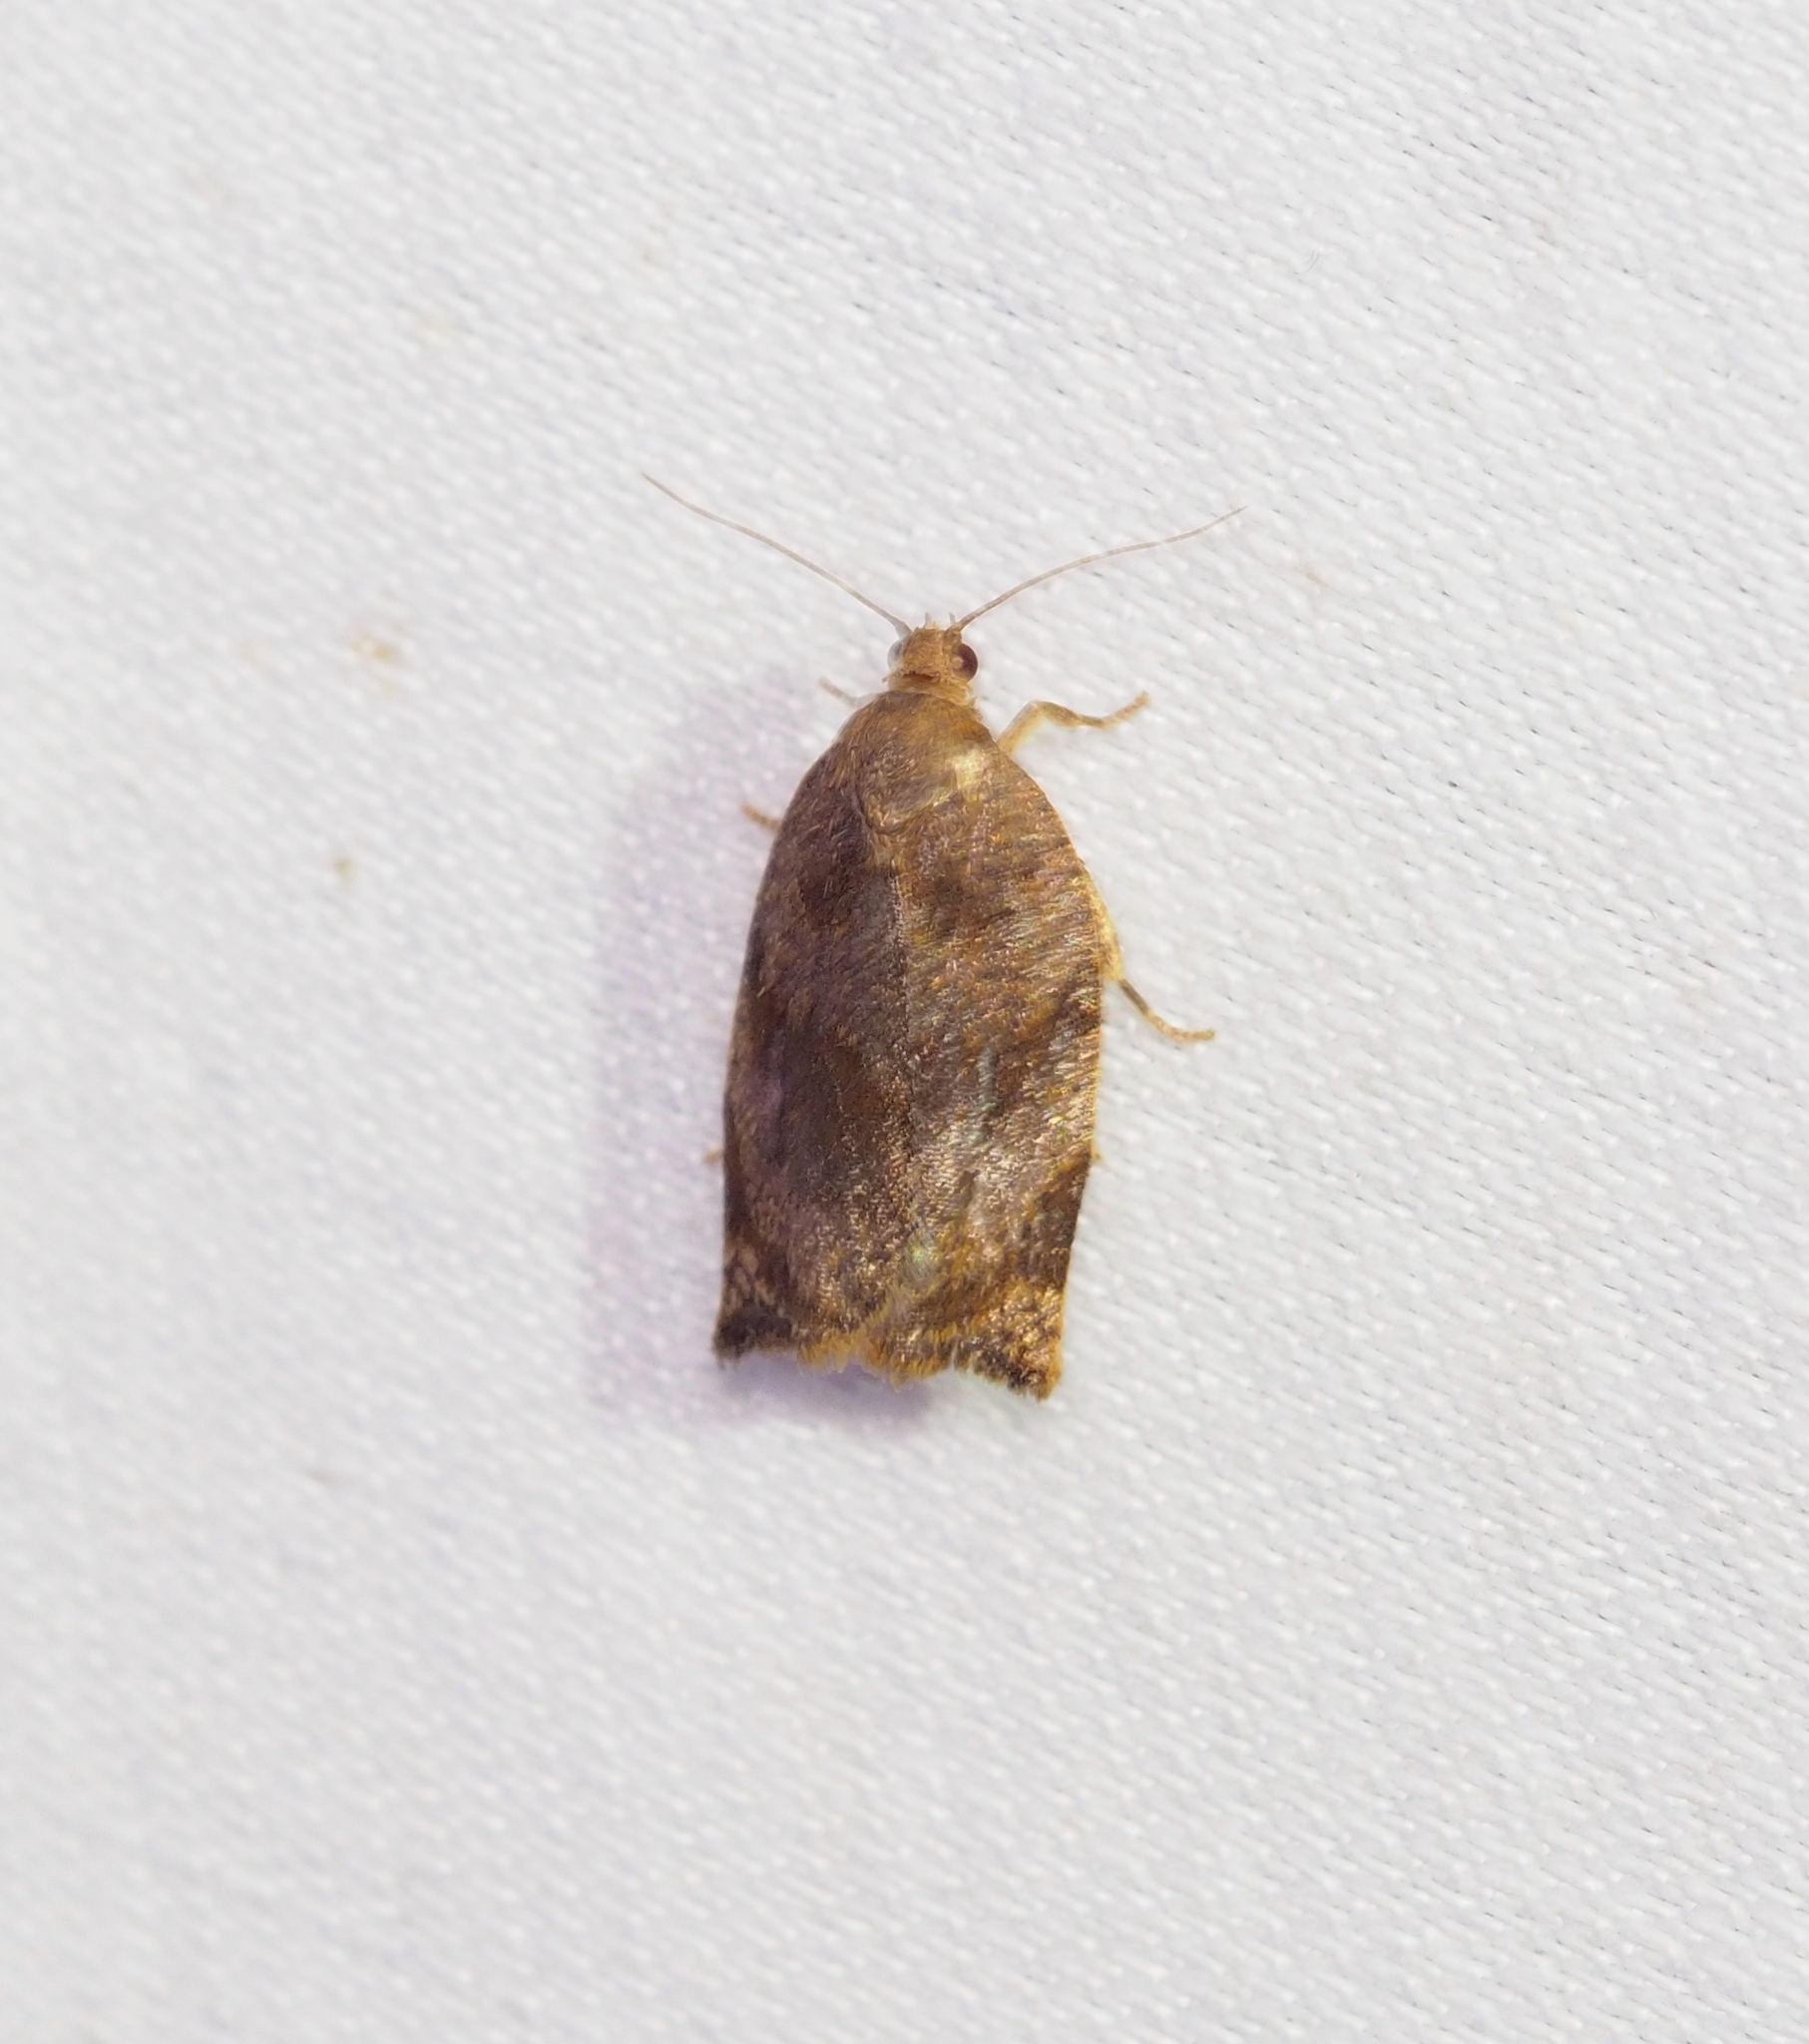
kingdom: Animalia
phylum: Arthropoda
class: Insecta
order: Lepidoptera
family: Tortricidae
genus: Archips
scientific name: Archips crataegana
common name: Brown oak tortrix
